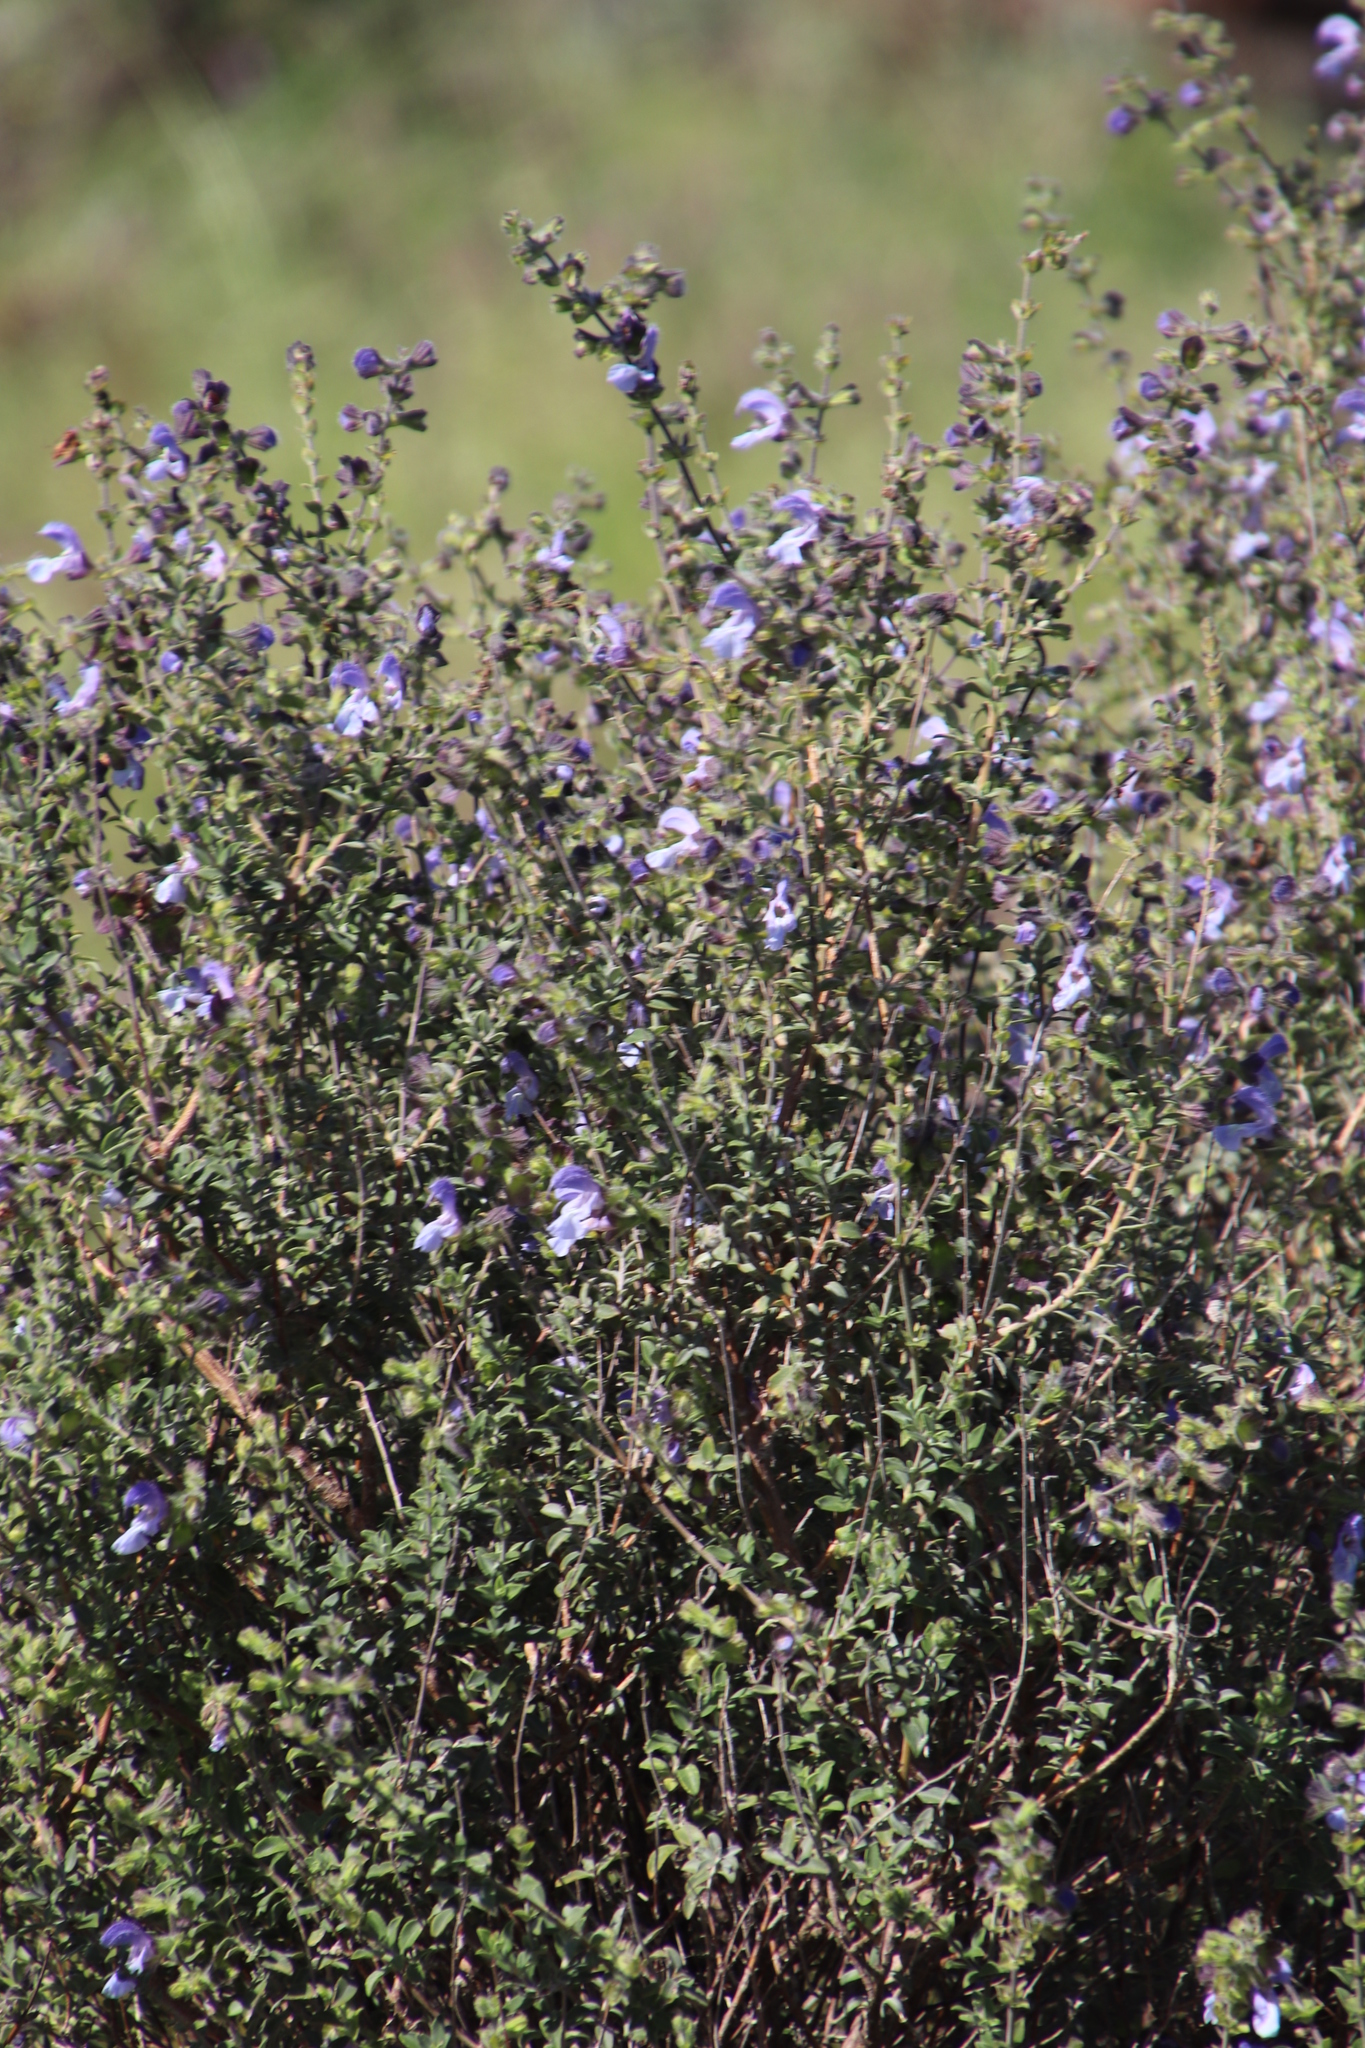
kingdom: Plantae
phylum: Tracheophyta
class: Magnoliopsida
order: Lamiales
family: Lamiaceae
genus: Salvia
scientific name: Salvia africana
